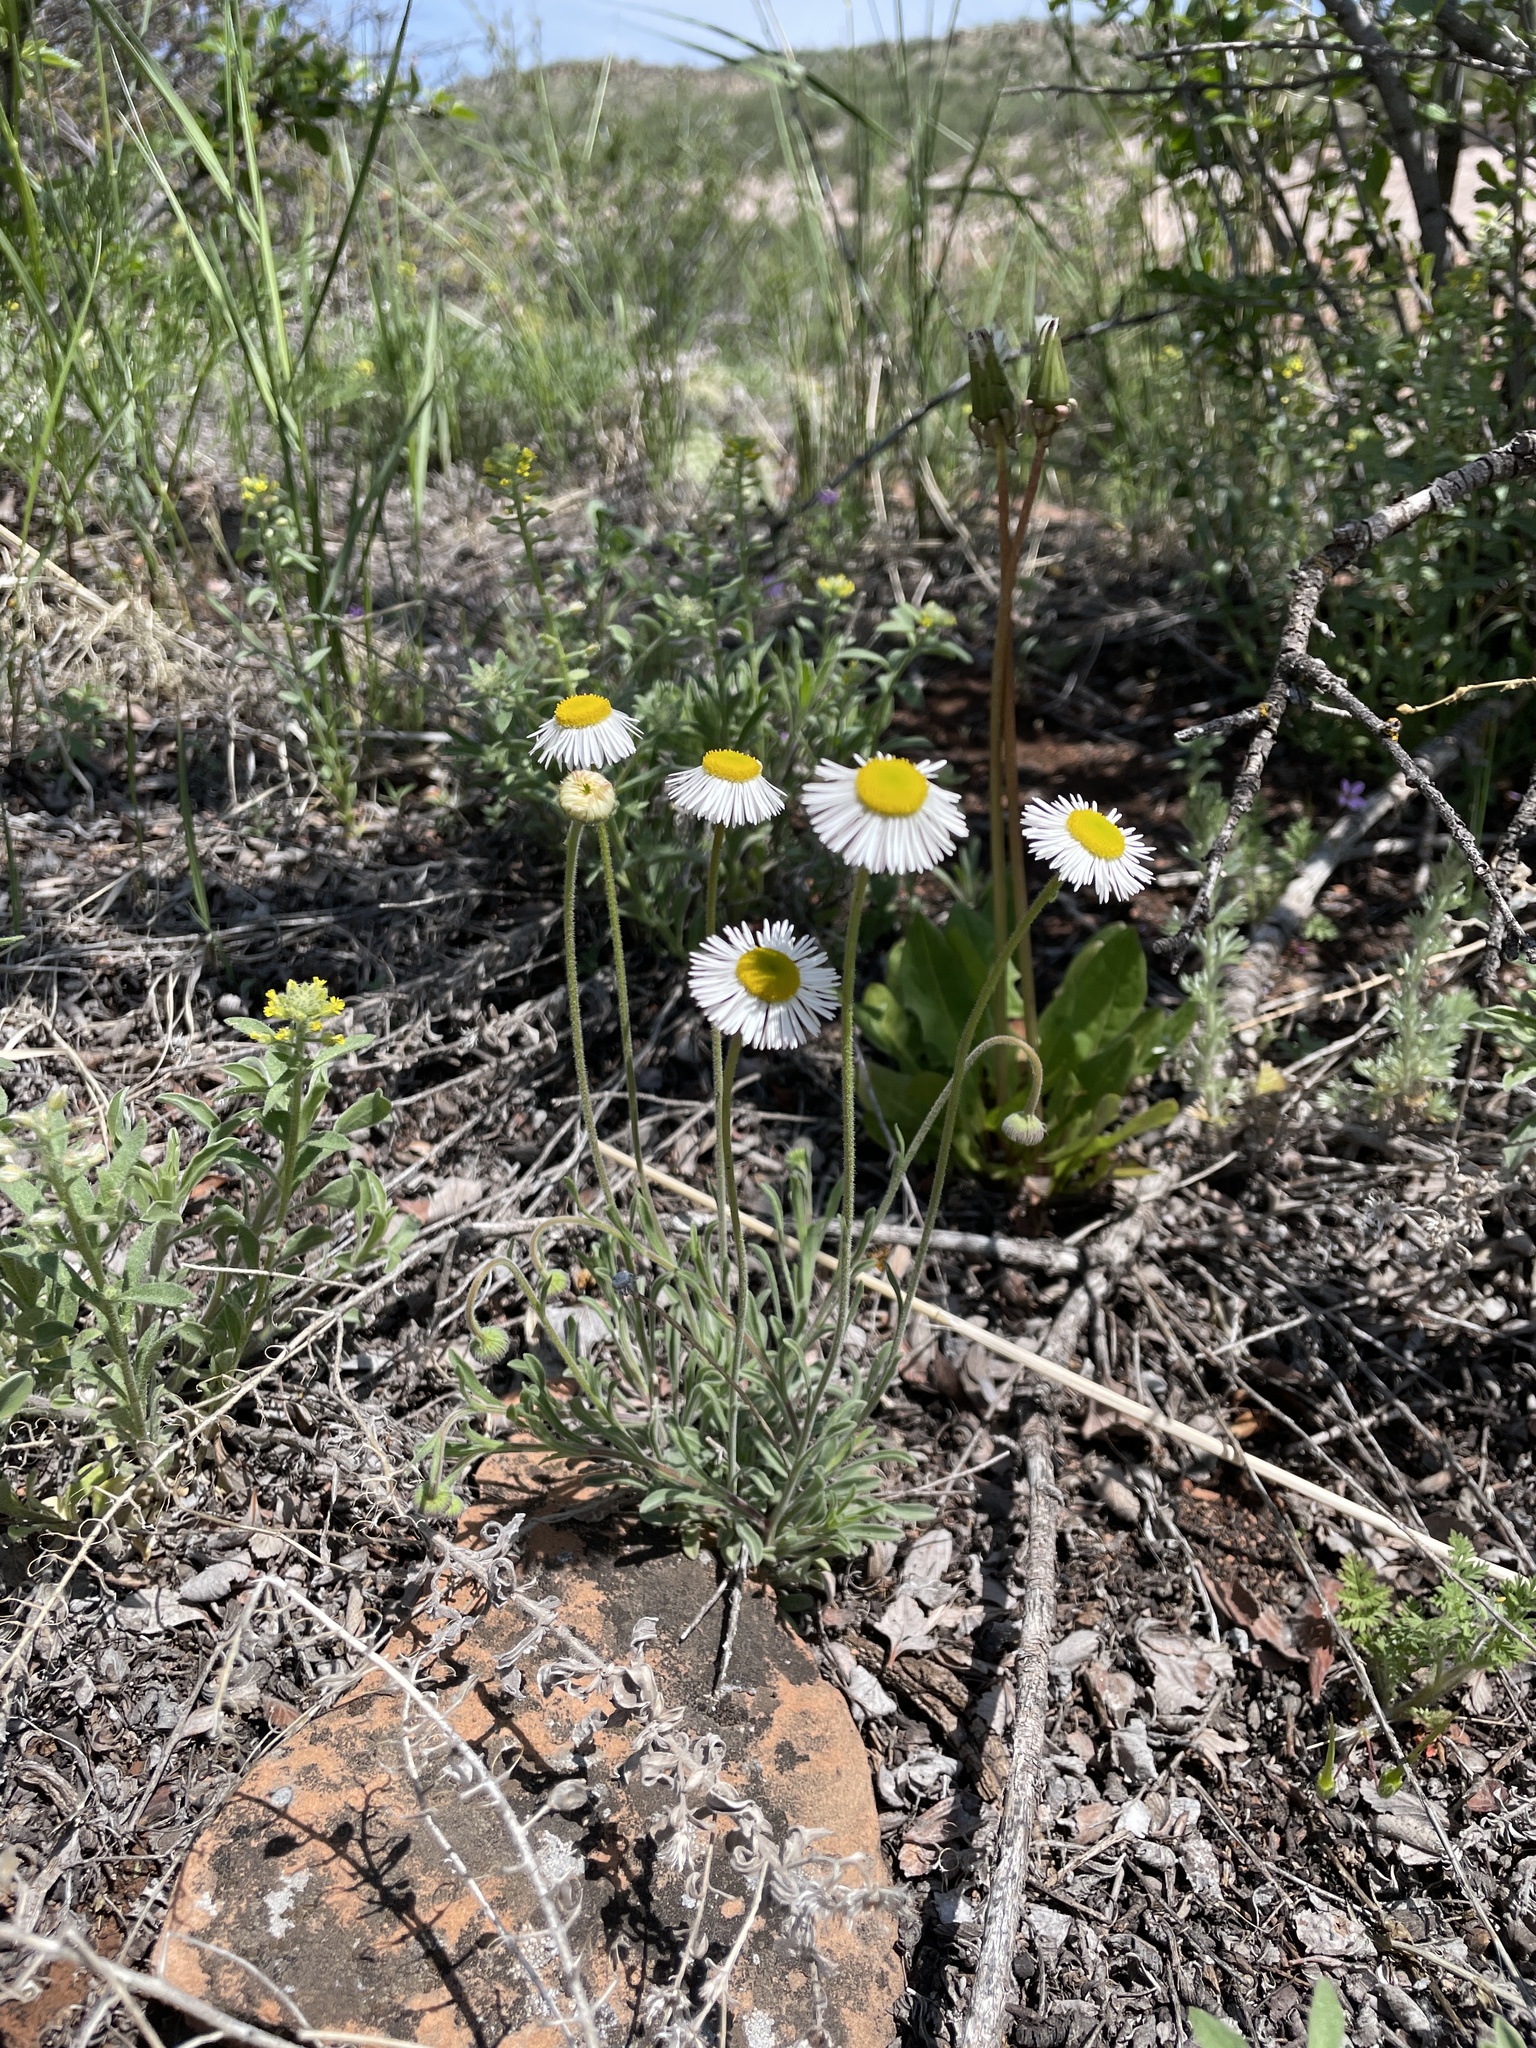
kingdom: Plantae
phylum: Tracheophyta
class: Magnoliopsida
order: Asterales
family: Asteraceae
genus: Erigeron
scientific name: Erigeron modestus
